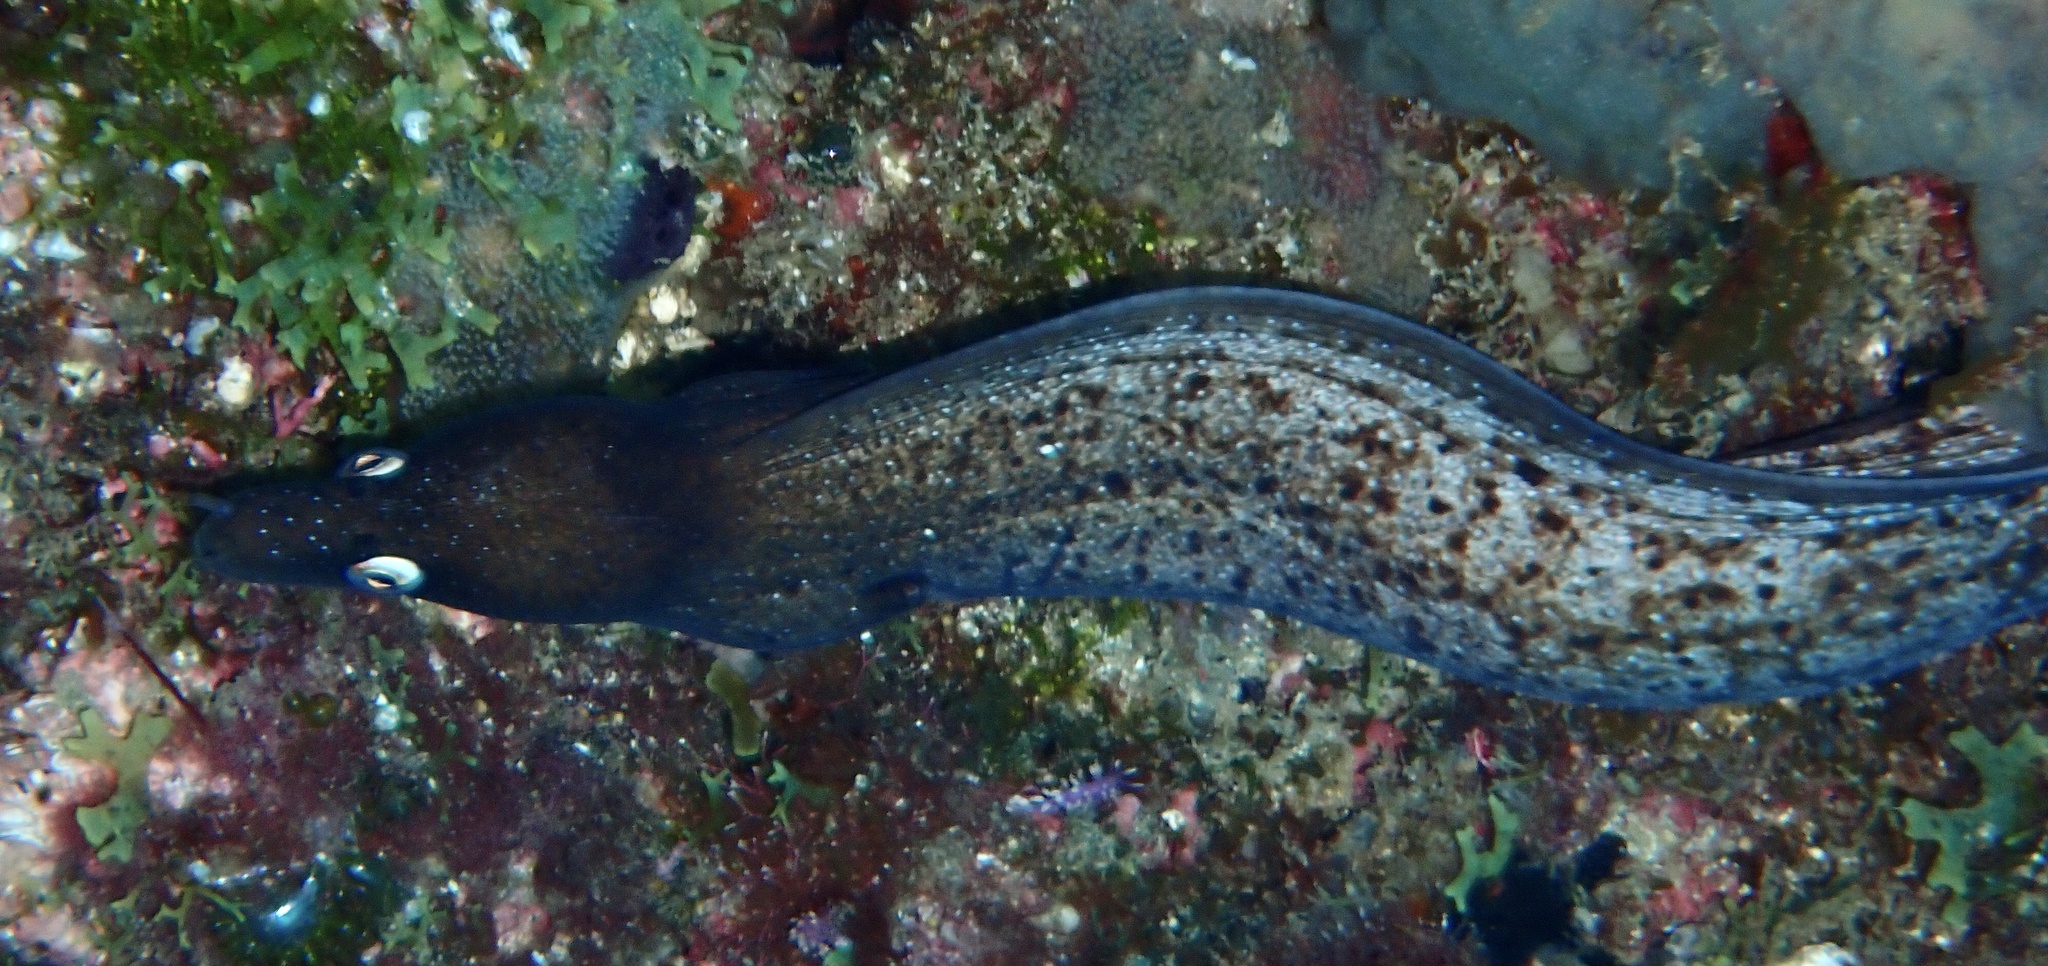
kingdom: Animalia
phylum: Chordata
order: Anguilliformes
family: Muraenidae
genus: Muraena
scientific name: Muraena augusti
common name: Mediterranean moray
